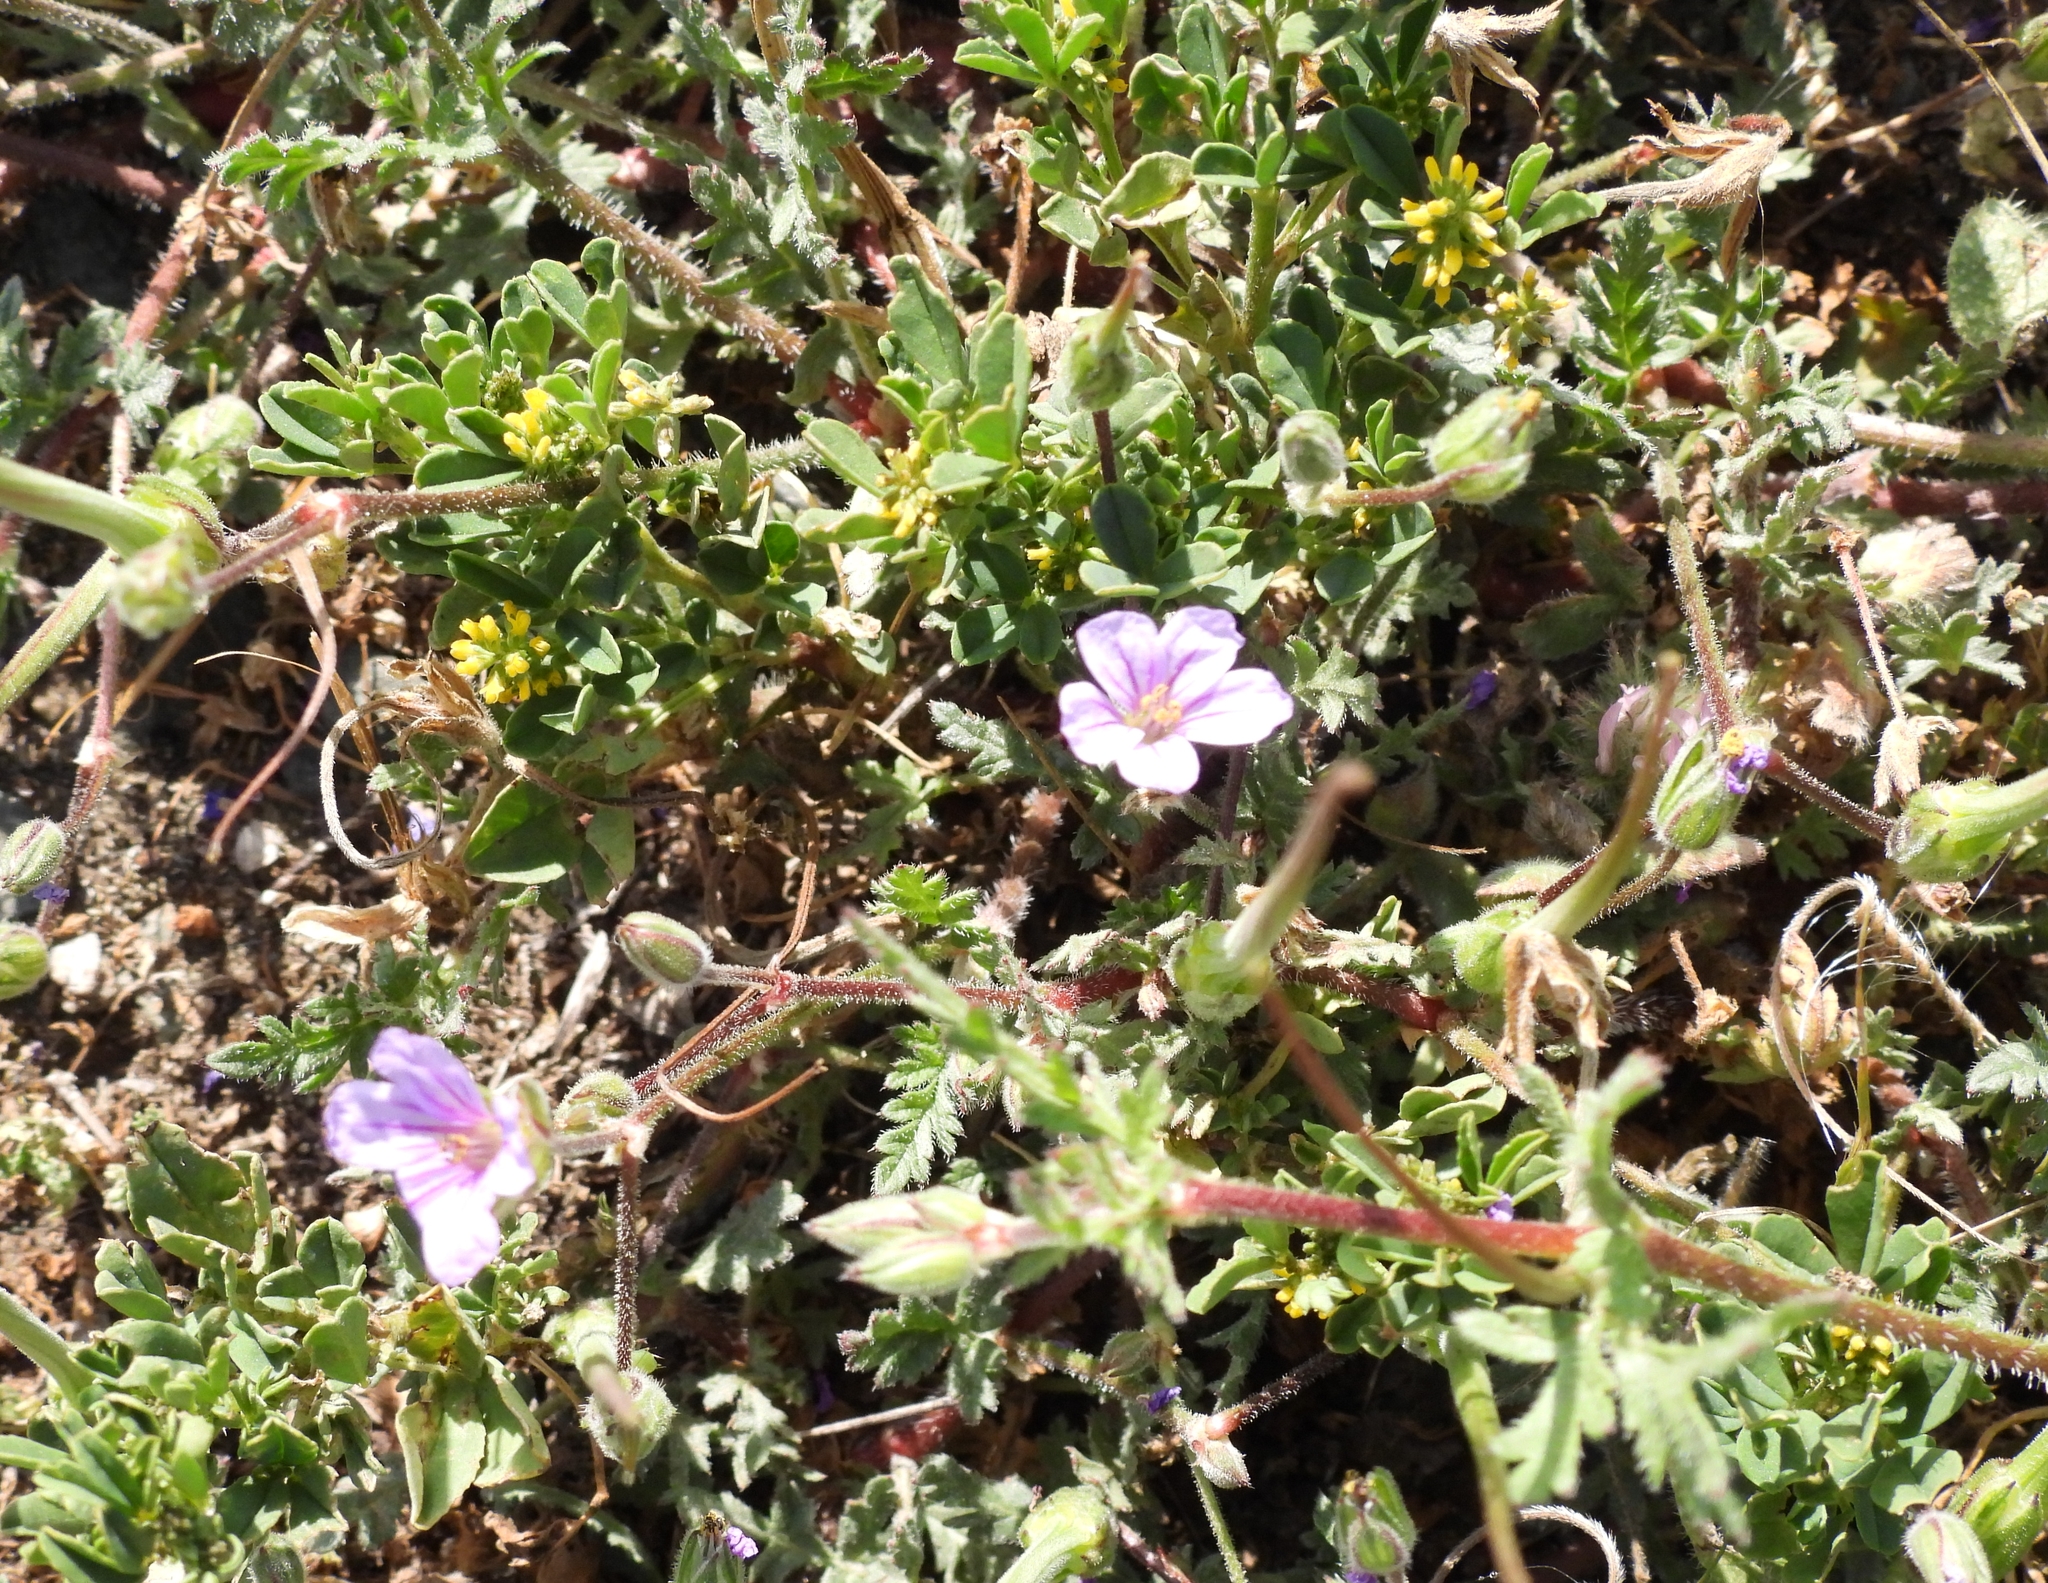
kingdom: Plantae
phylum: Tracheophyta
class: Magnoliopsida
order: Geraniales
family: Geraniaceae
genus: Erodium
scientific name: Erodium botrys
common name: Mediterranean stork's-bill
